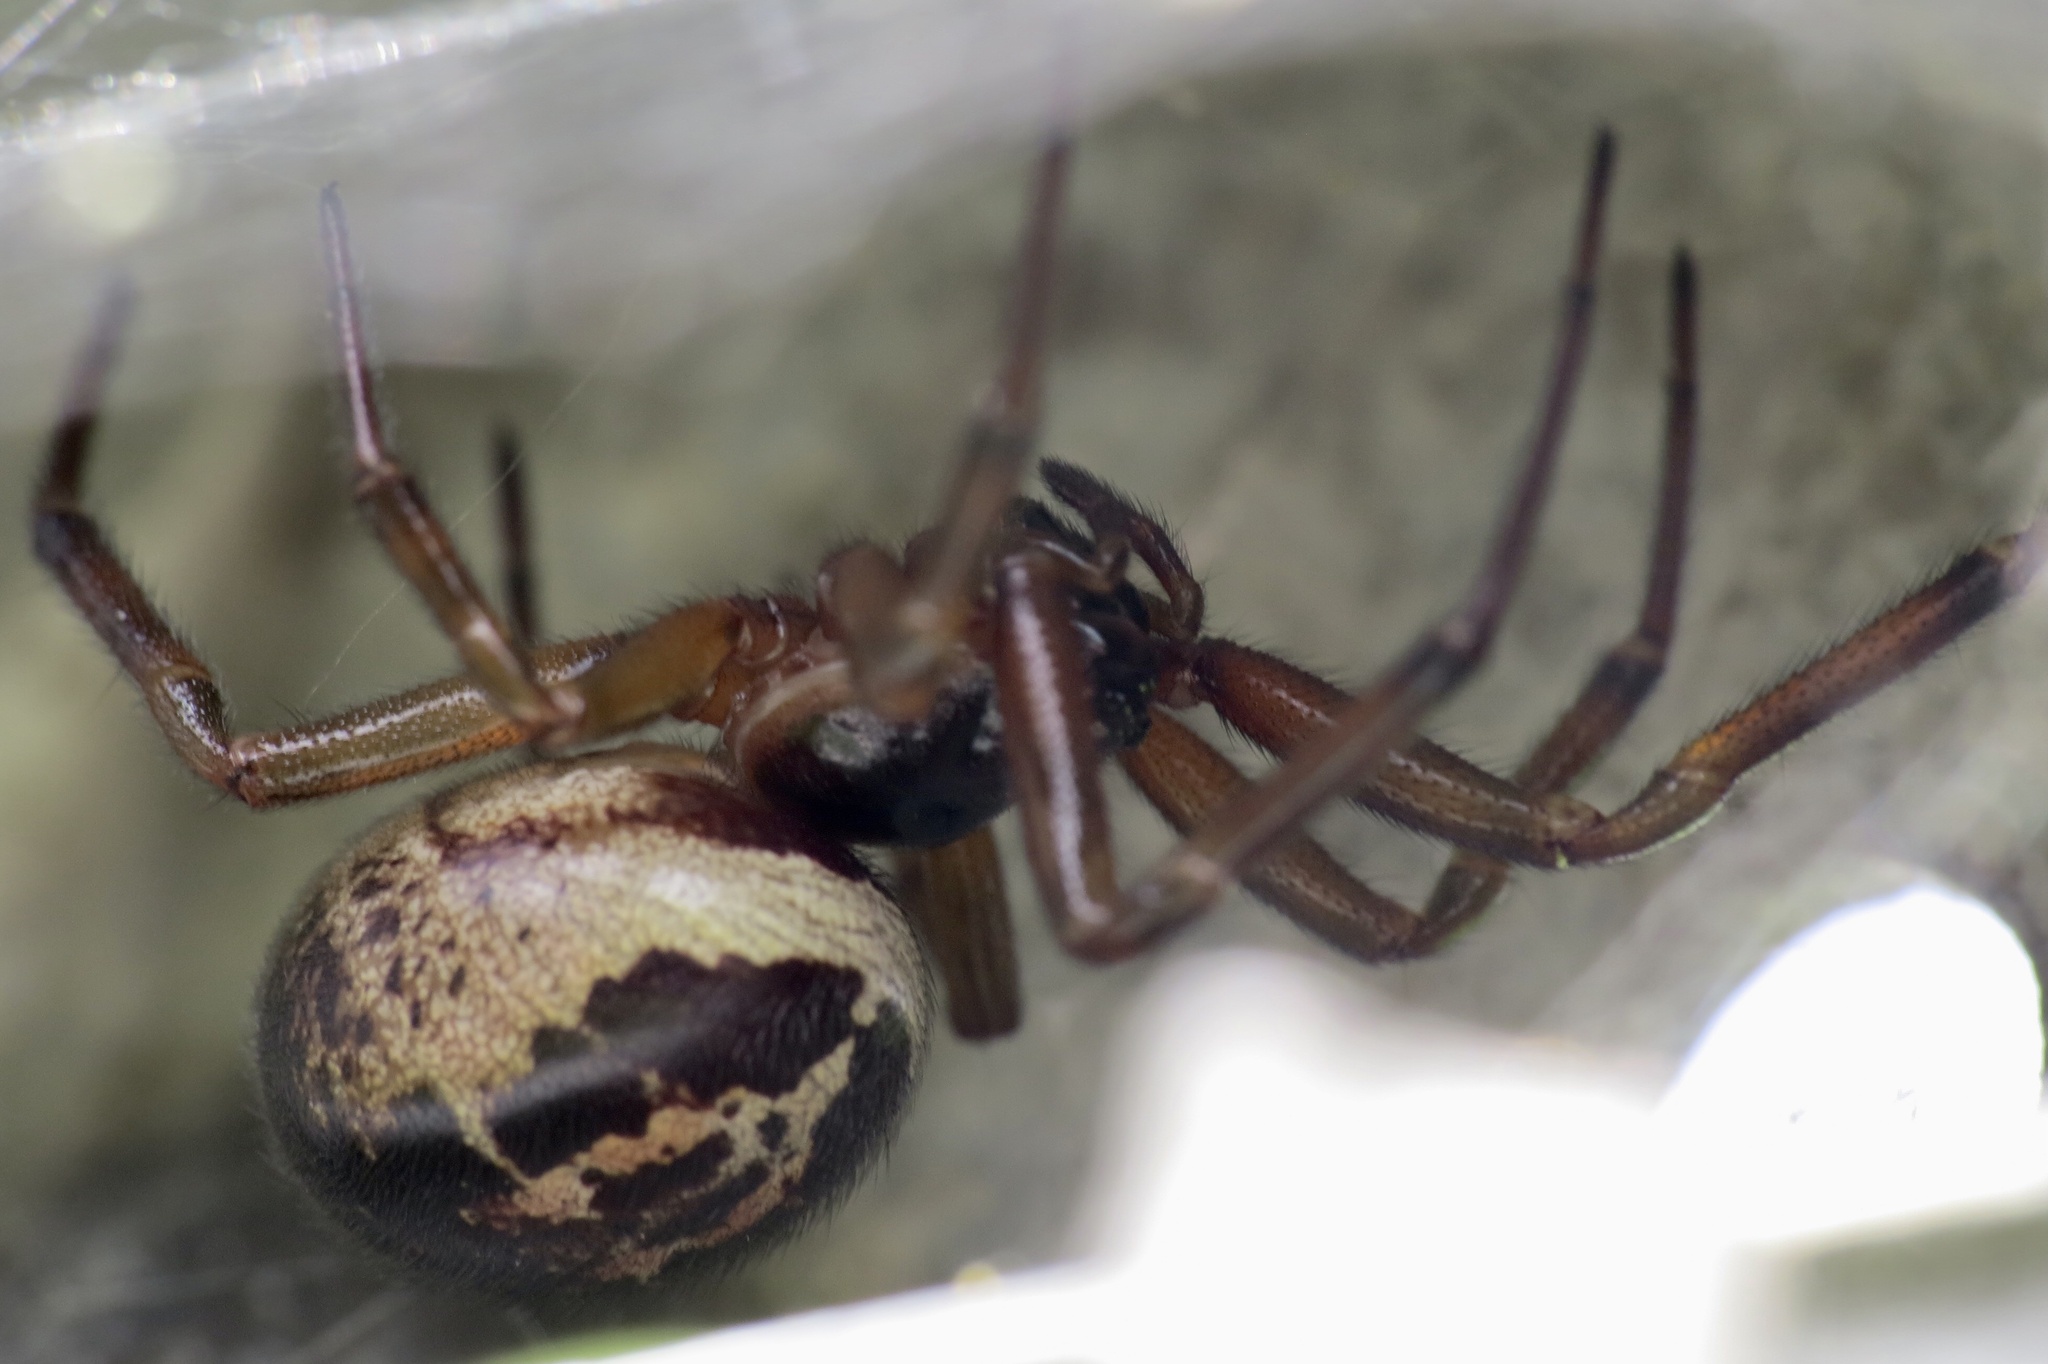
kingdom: Animalia
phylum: Arthropoda
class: Arachnida
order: Araneae
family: Theridiidae
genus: Steatoda
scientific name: Steatoda nobilis
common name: Cobweb weaver
